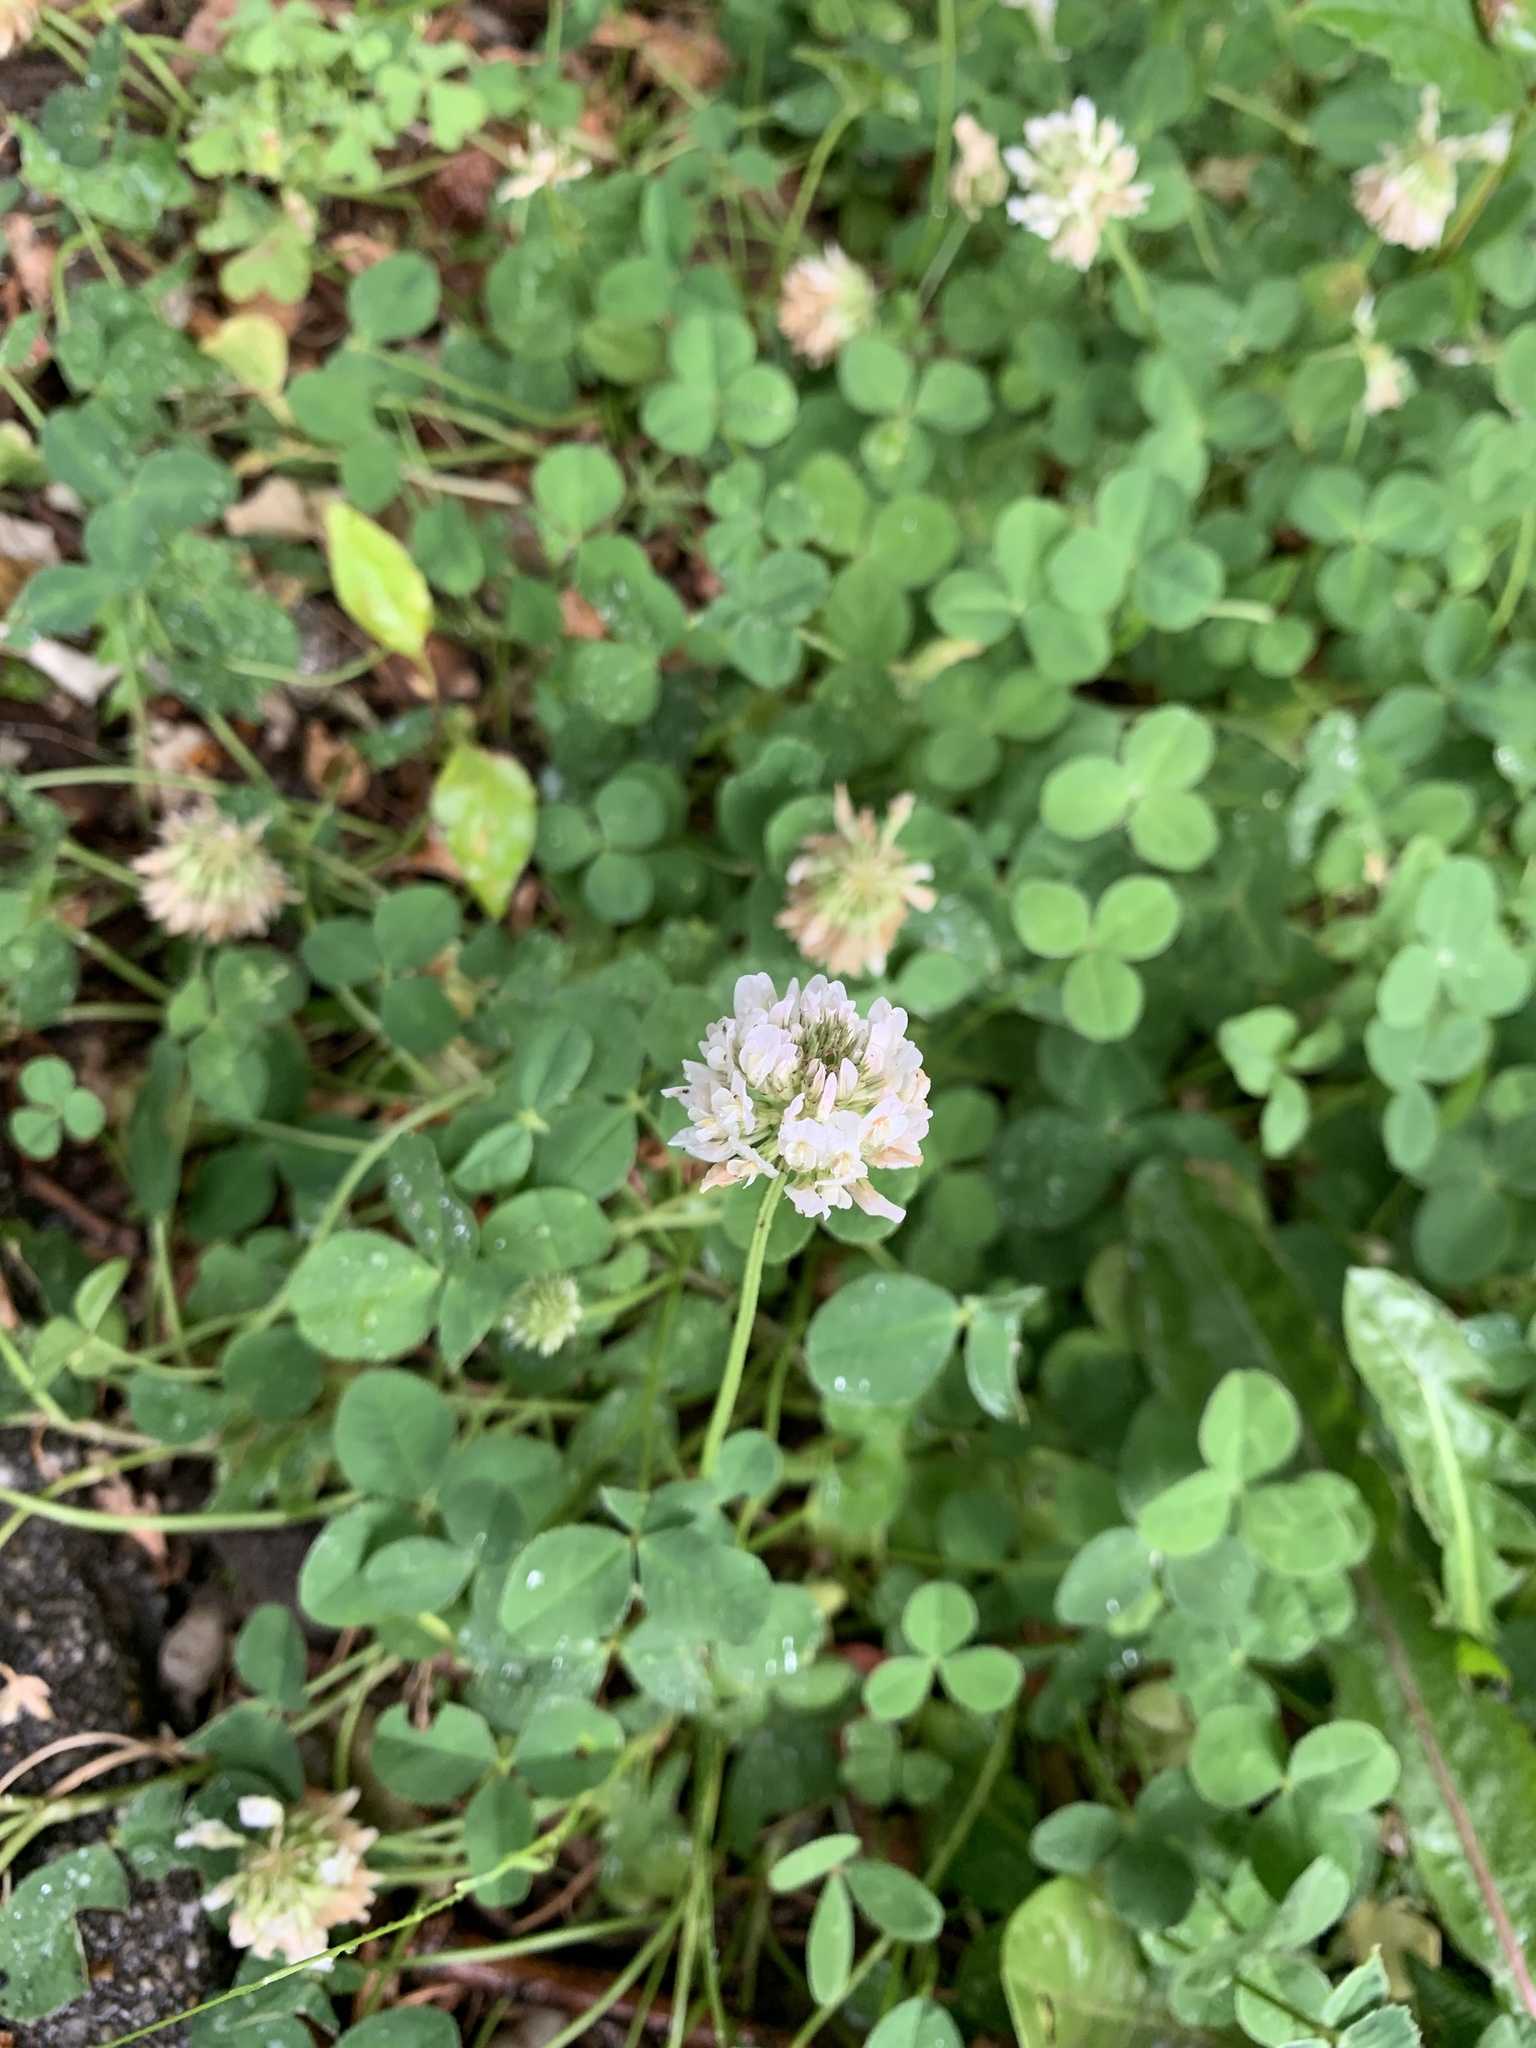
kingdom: Plantae
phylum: Tracheophyta
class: Magnoliopsida
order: Fabales
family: Fabaceae
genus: Trifolium
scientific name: Trifolium repens
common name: White clover
